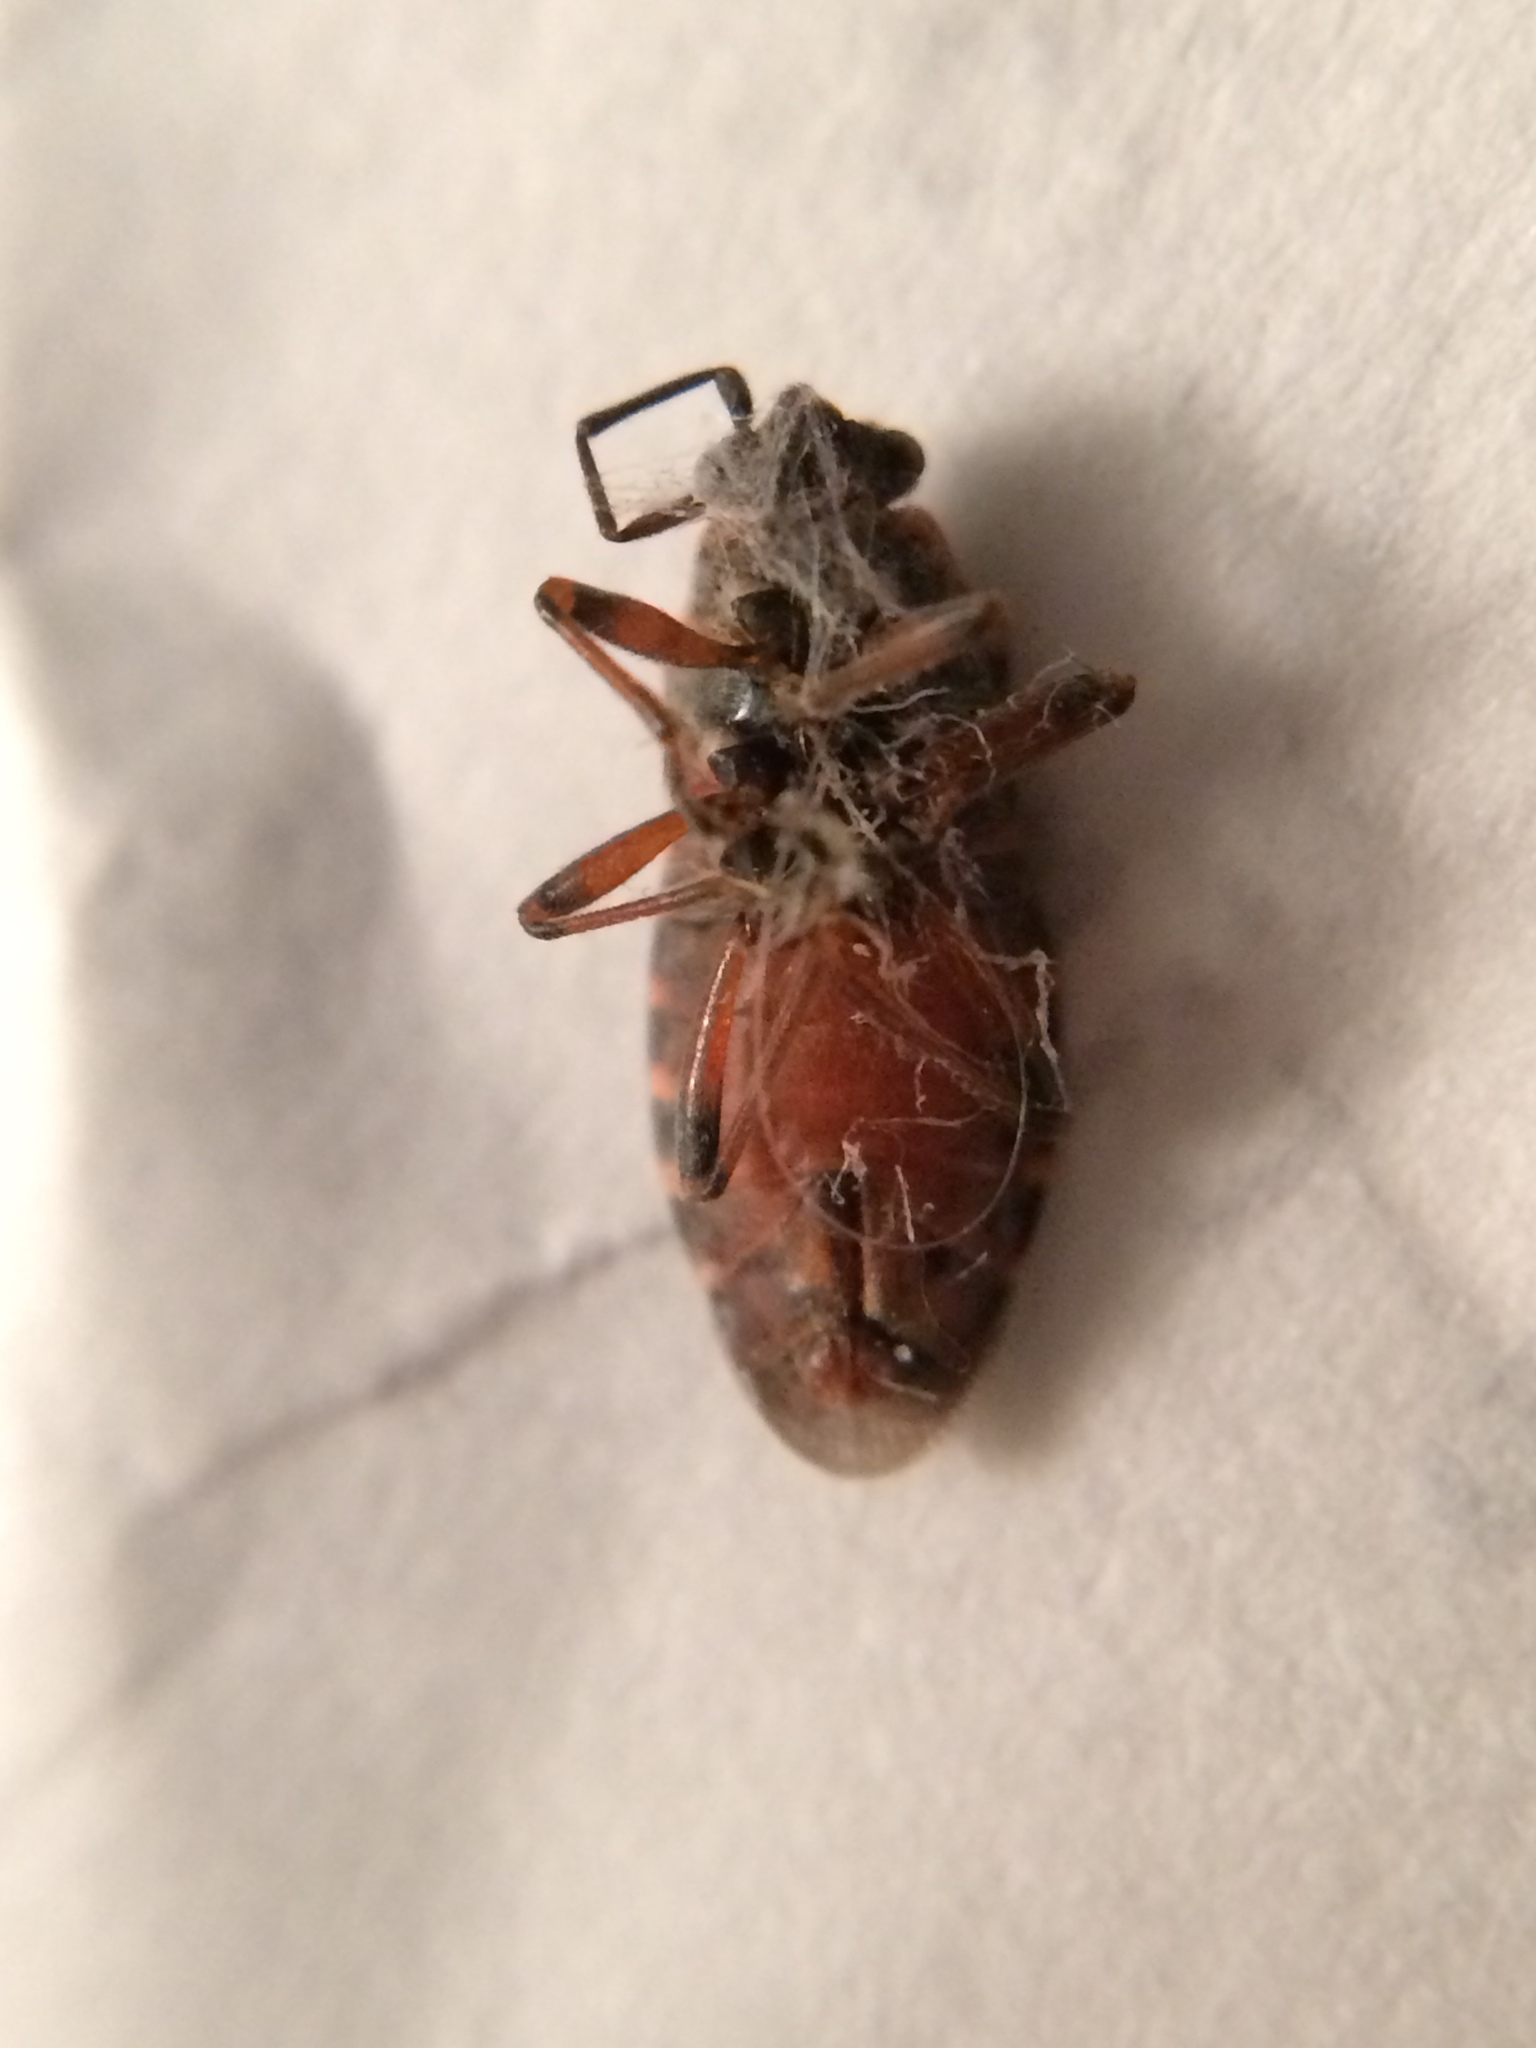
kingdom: Animalia
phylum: Arthropoda
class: Insecta
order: Hemiptera
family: Lygaeidae
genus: Arocatus
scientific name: Arocatus melanocephalus
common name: Lygaeid bug
